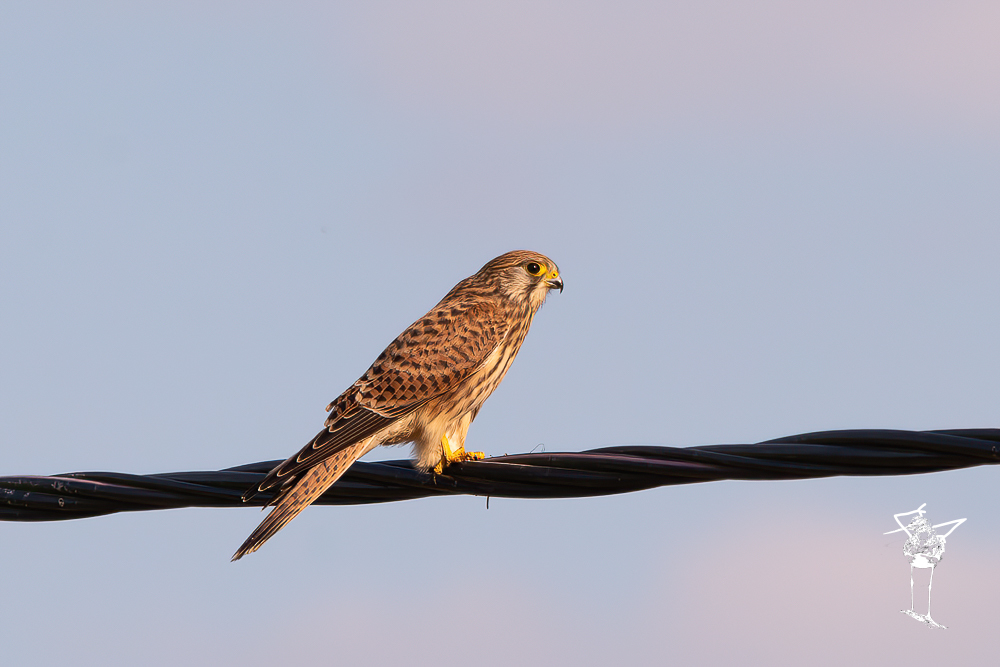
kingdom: Animalia
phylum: Chordata
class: Aves
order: Falconiformes
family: Falconidae
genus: Falco
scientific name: Falco tinnunculus
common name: Common kestrel
